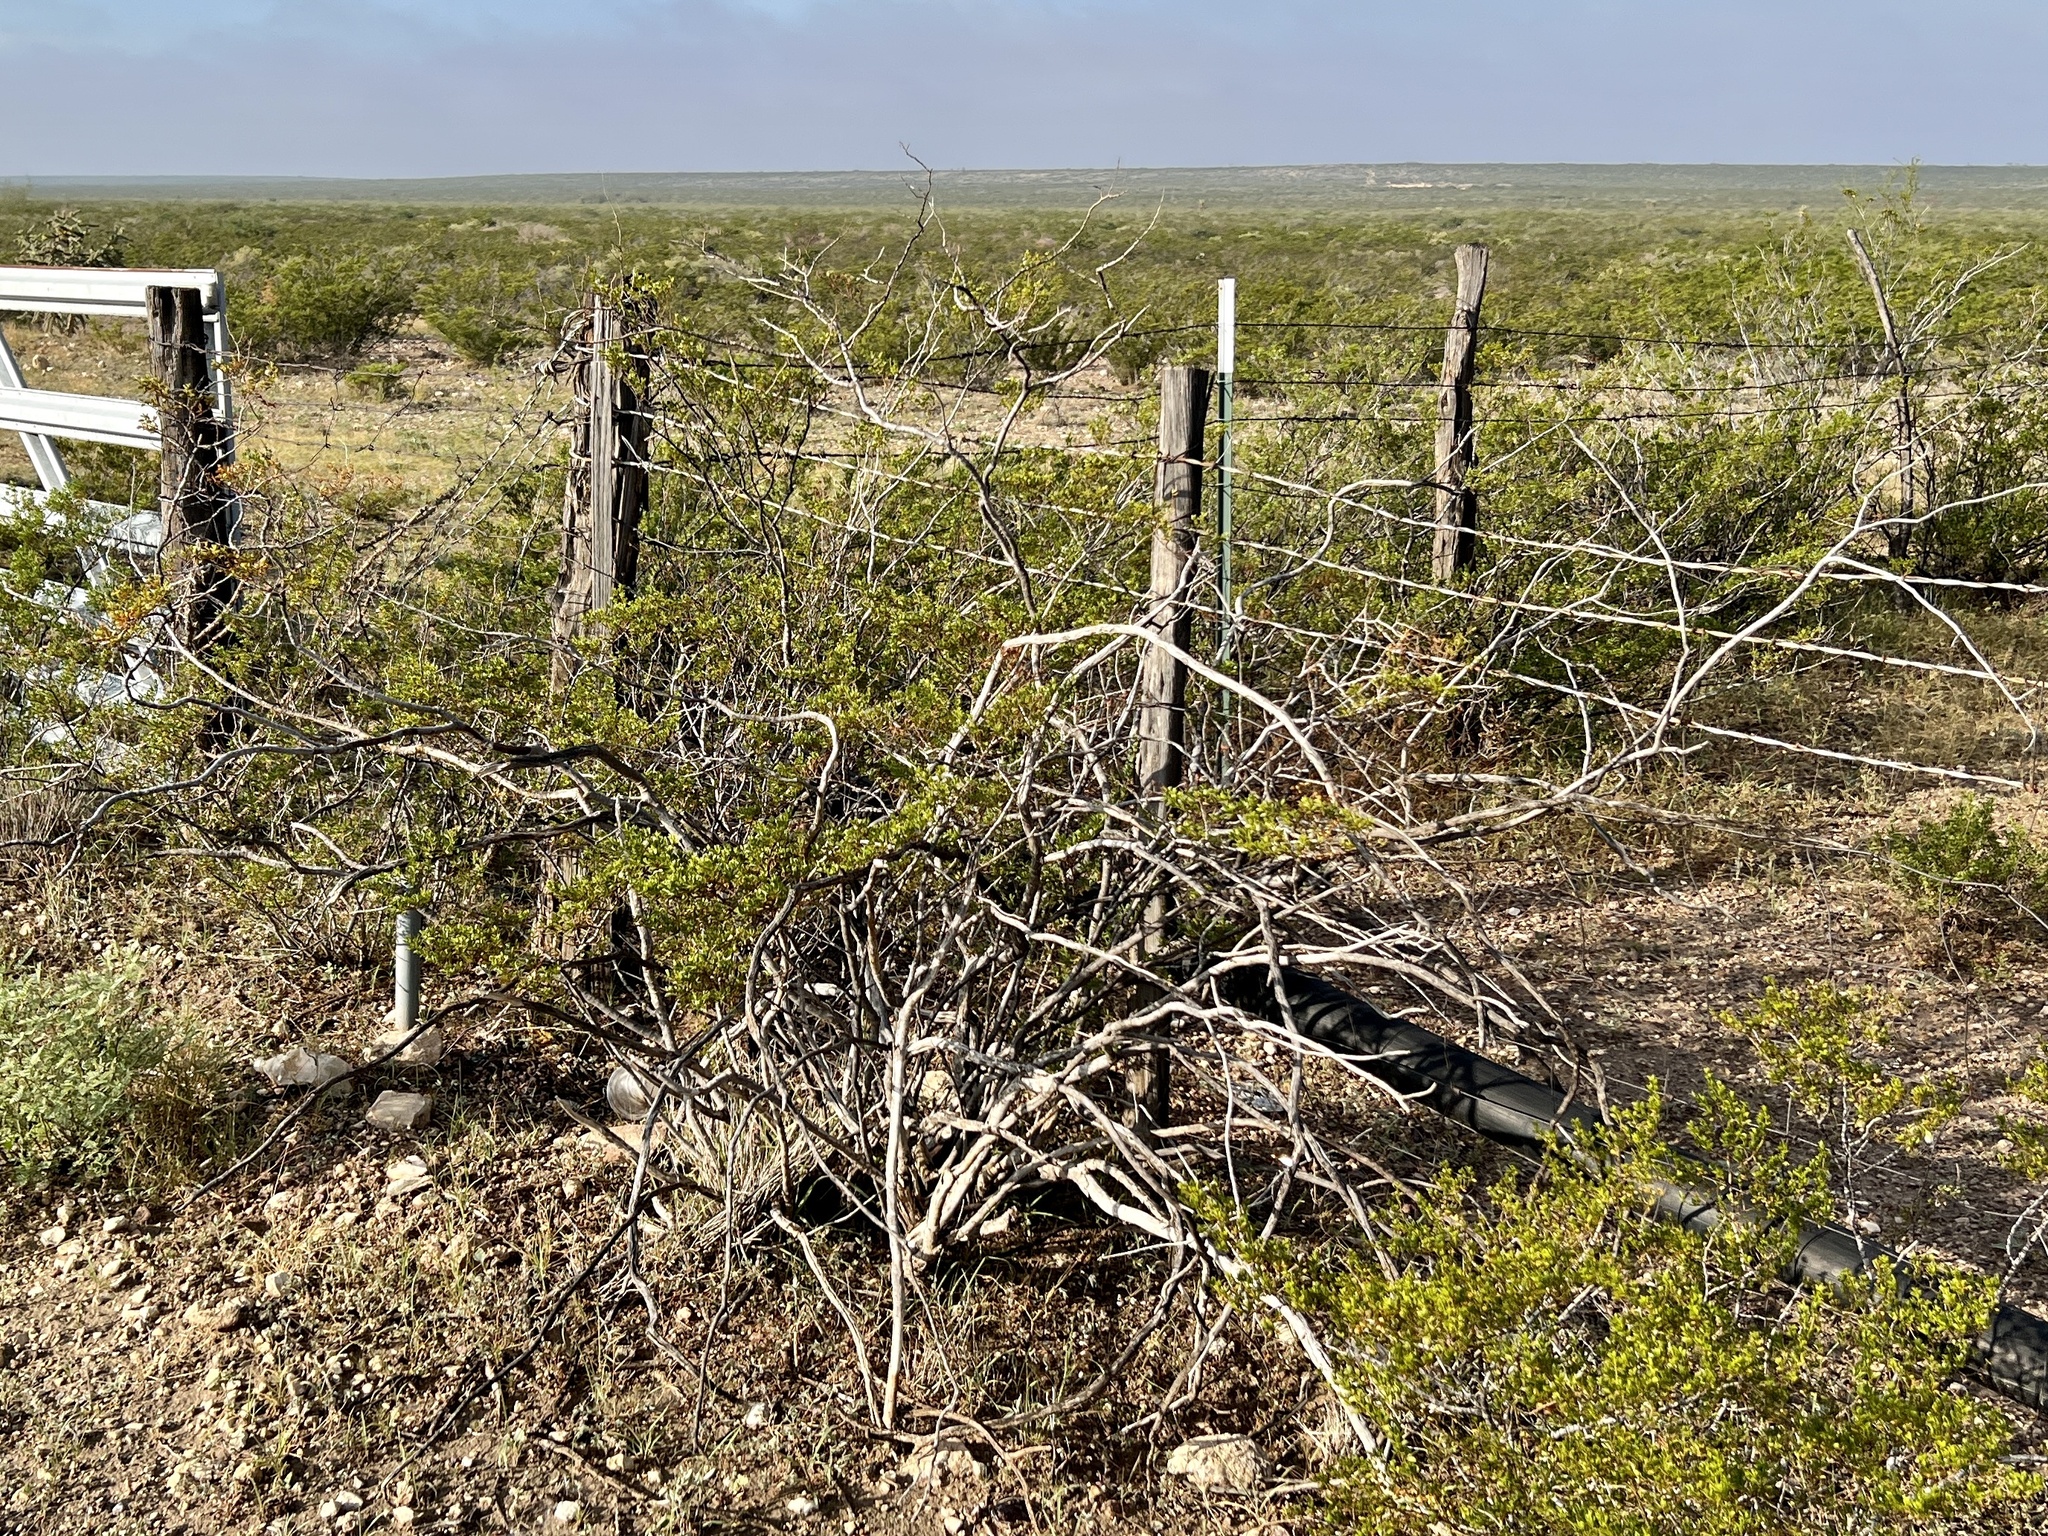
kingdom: Plantae
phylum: Tracheophyta
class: Magnoliopsida
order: Zygophyllales
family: Zygophyllaceae
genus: Larrea
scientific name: Larrea tridentata
